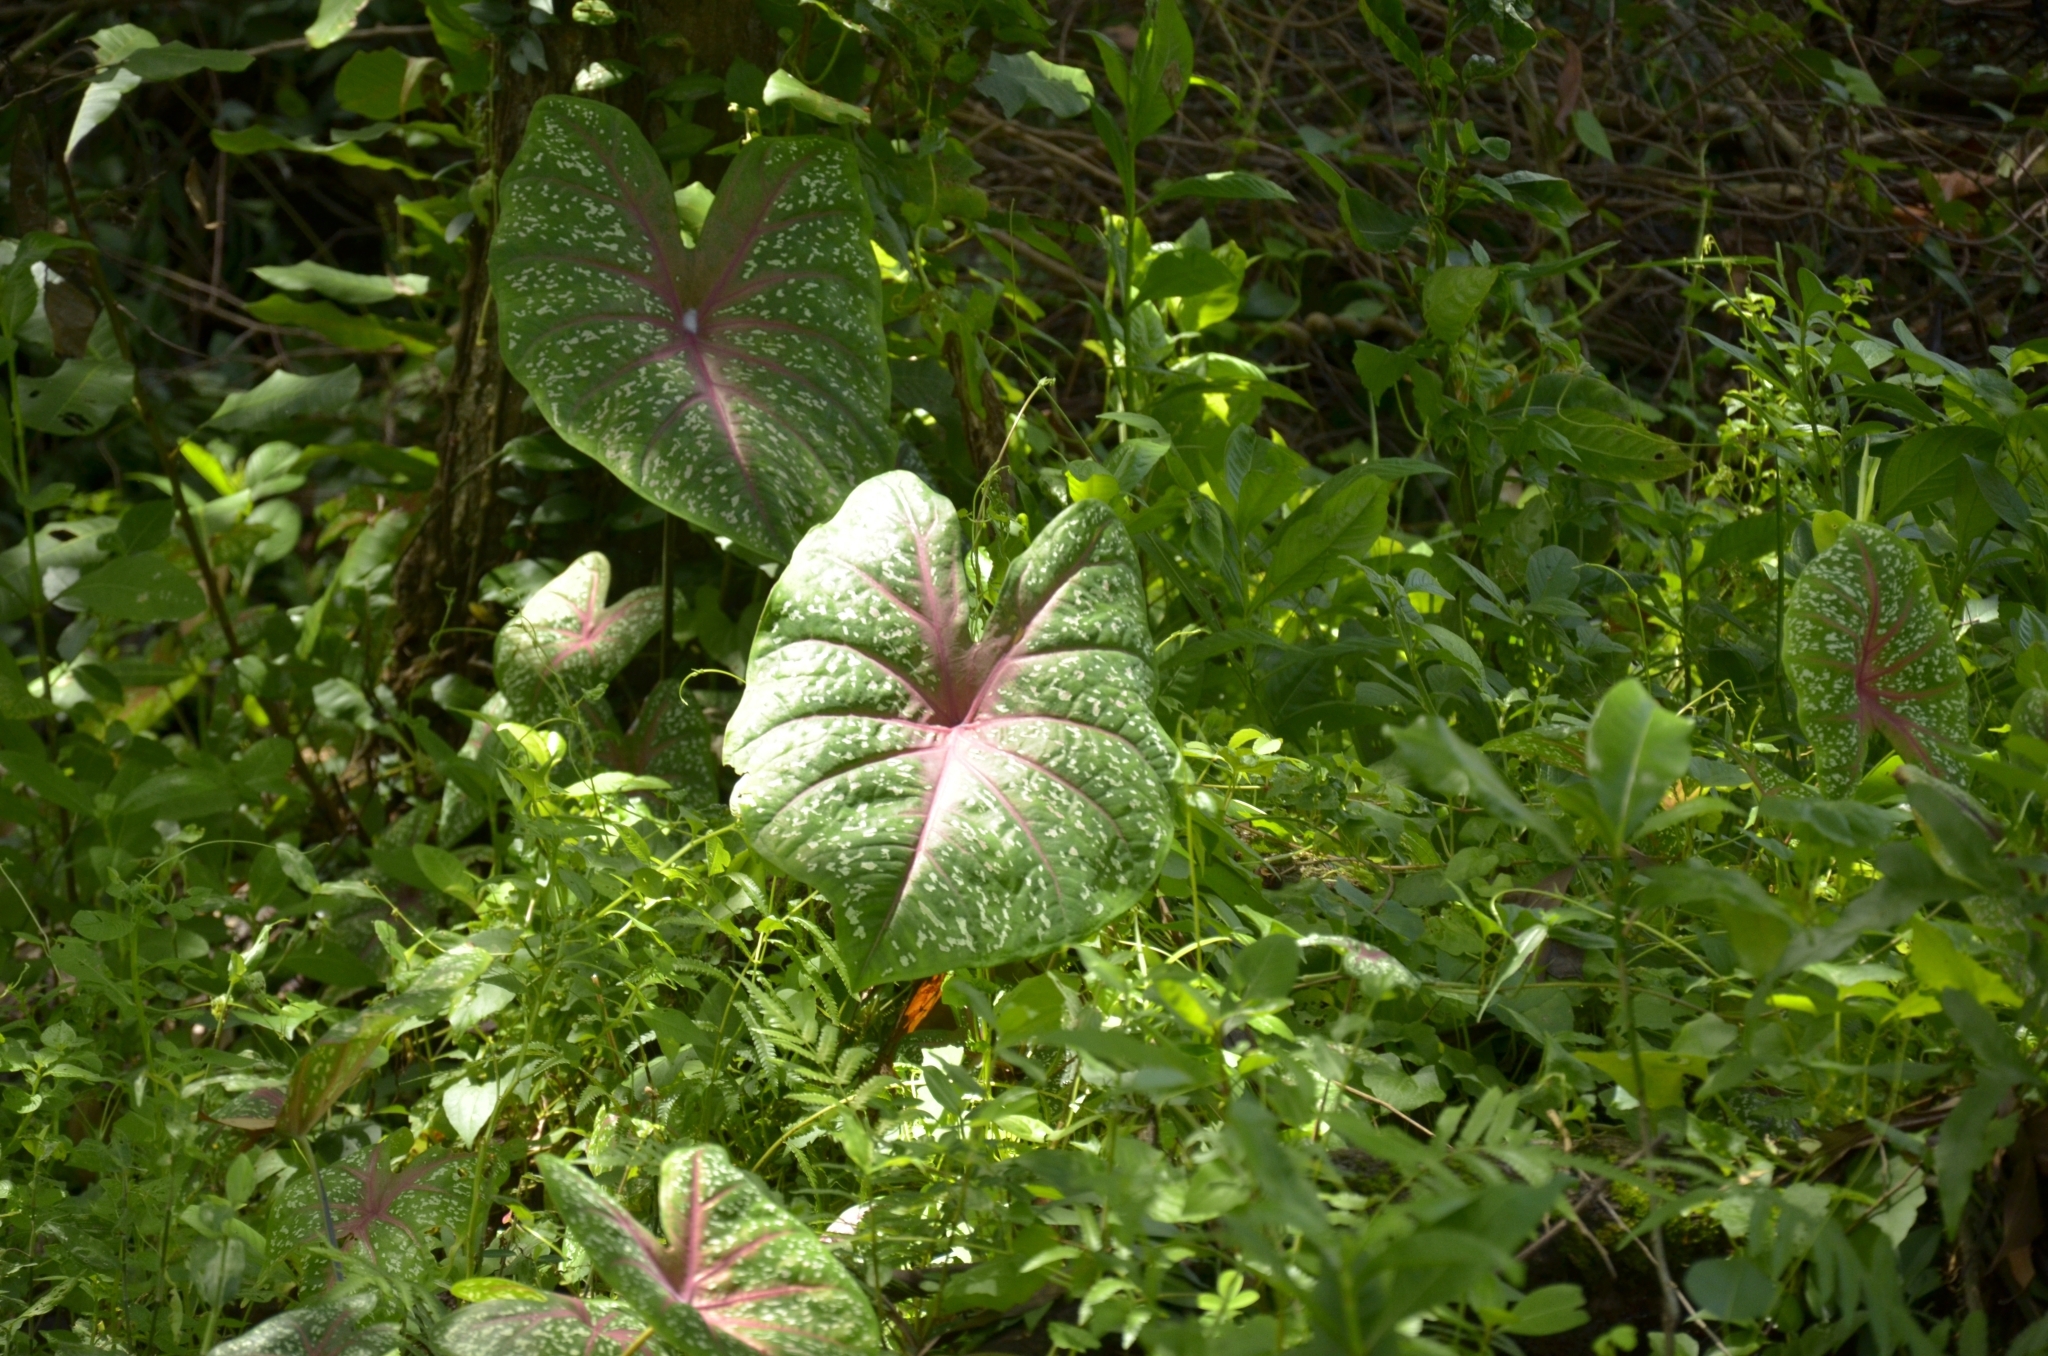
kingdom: Plantae
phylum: Tracheophyta
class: Liliopsida
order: Alismatales
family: Araceae
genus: Caladium
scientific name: Caladium bicolor
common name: Artist's pallet
